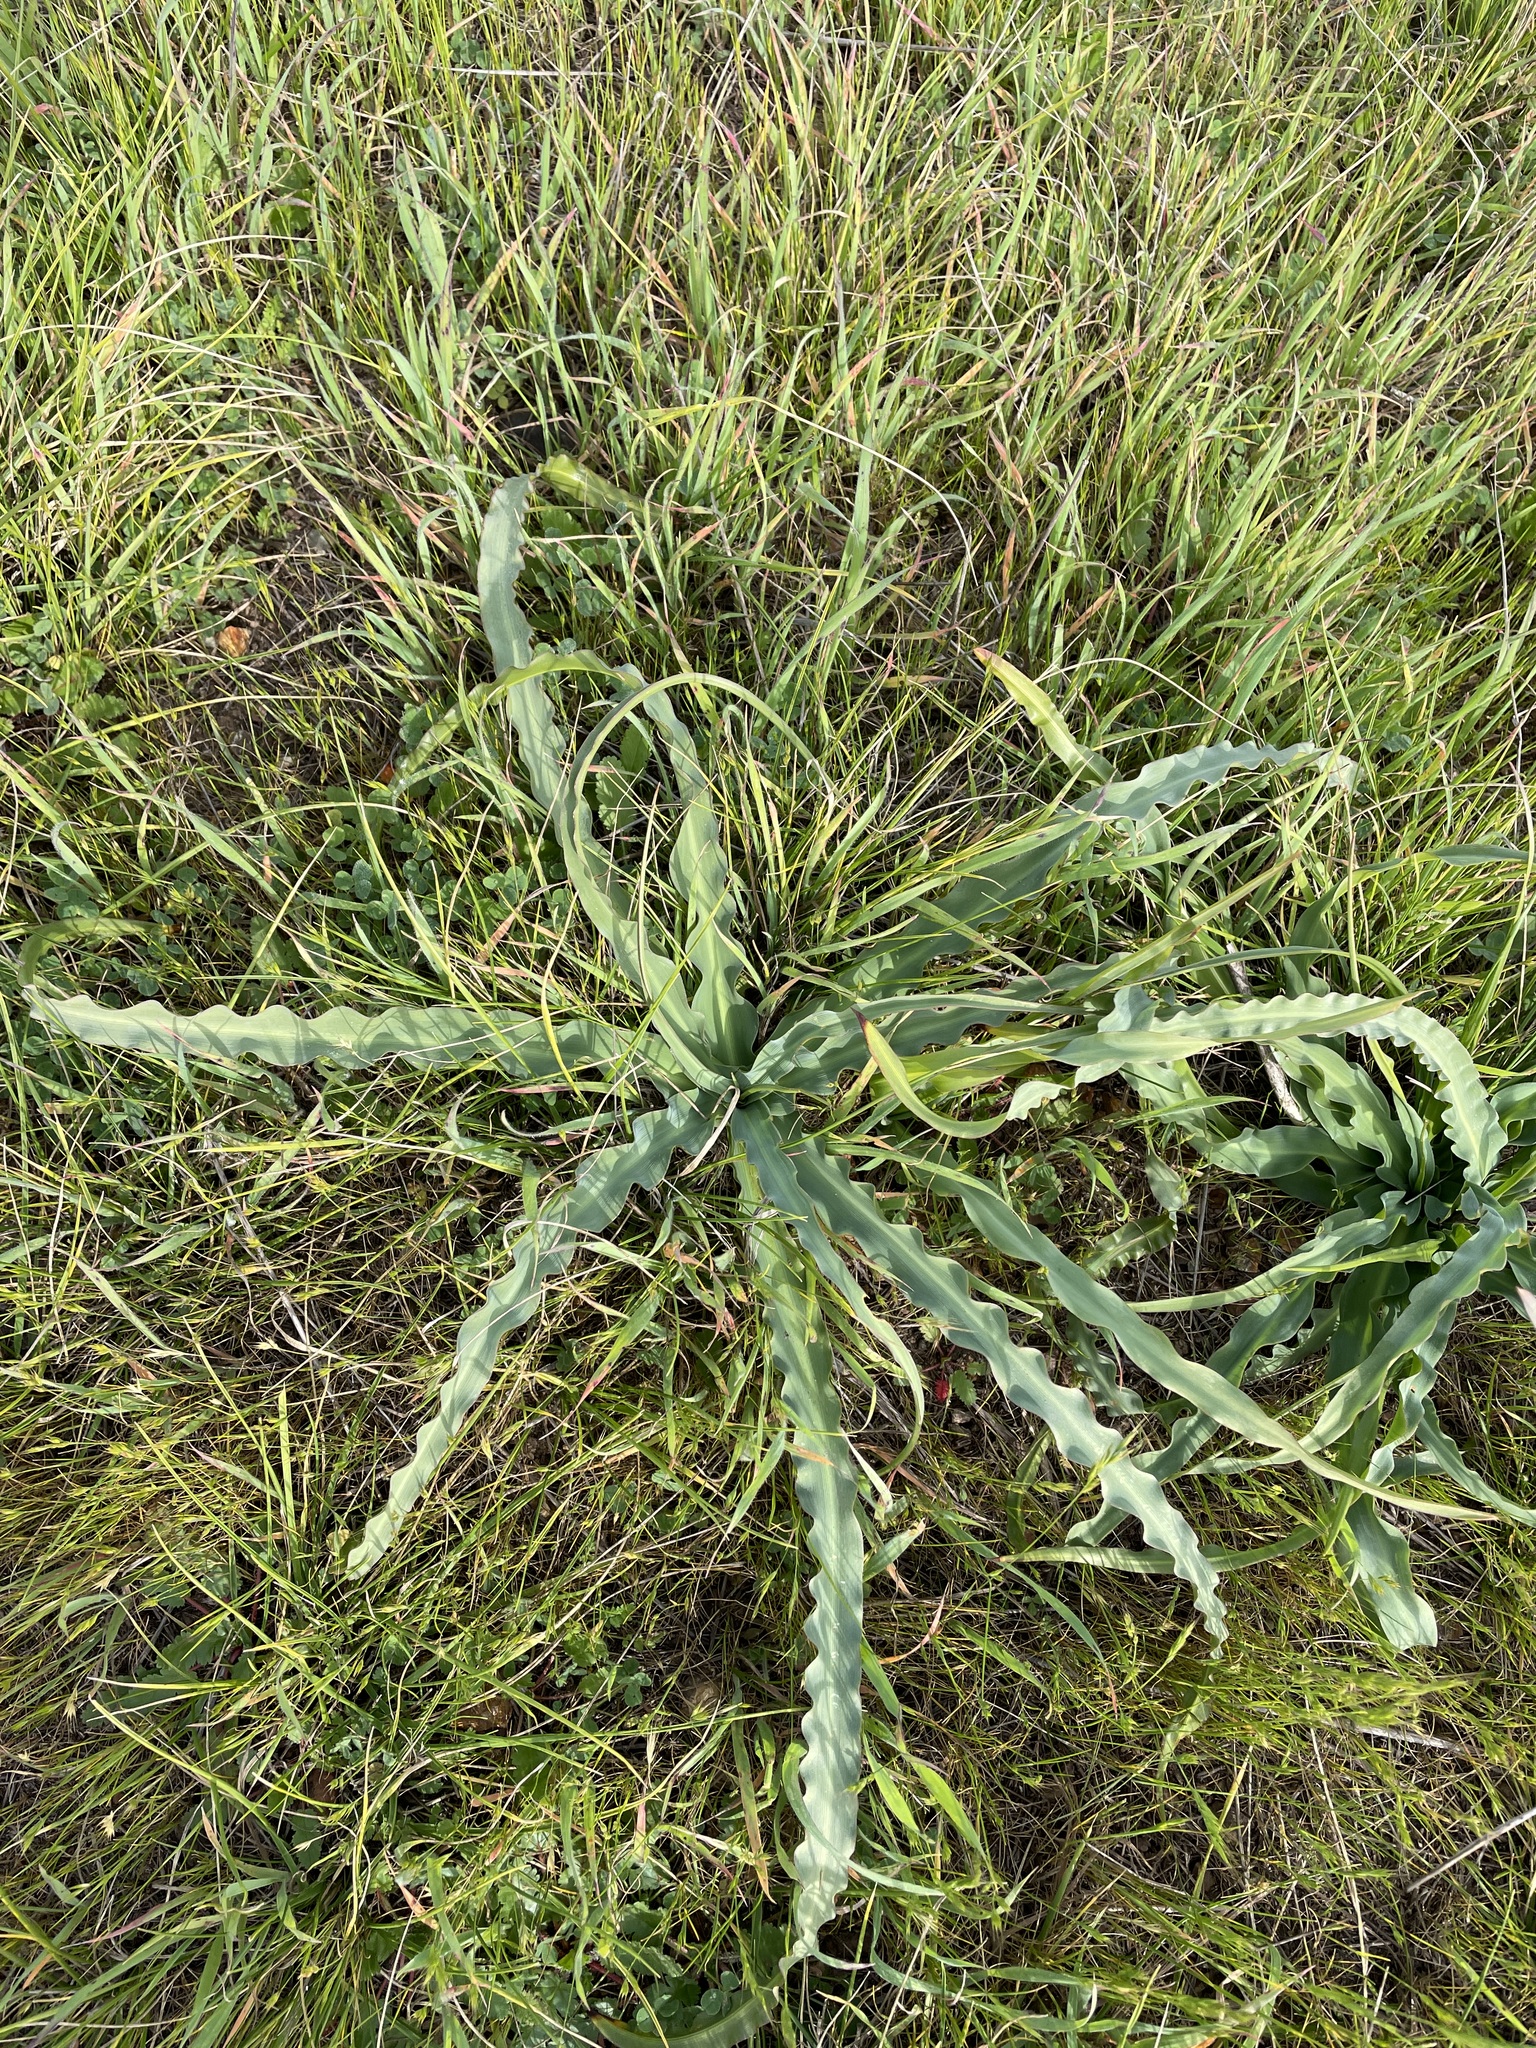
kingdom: Plantae
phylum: Tracheophyta
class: Liliopsida
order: Asparagales
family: Asparagaceae
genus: Chlorogalum
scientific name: Chlorogalum pomeridianum
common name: Amole
